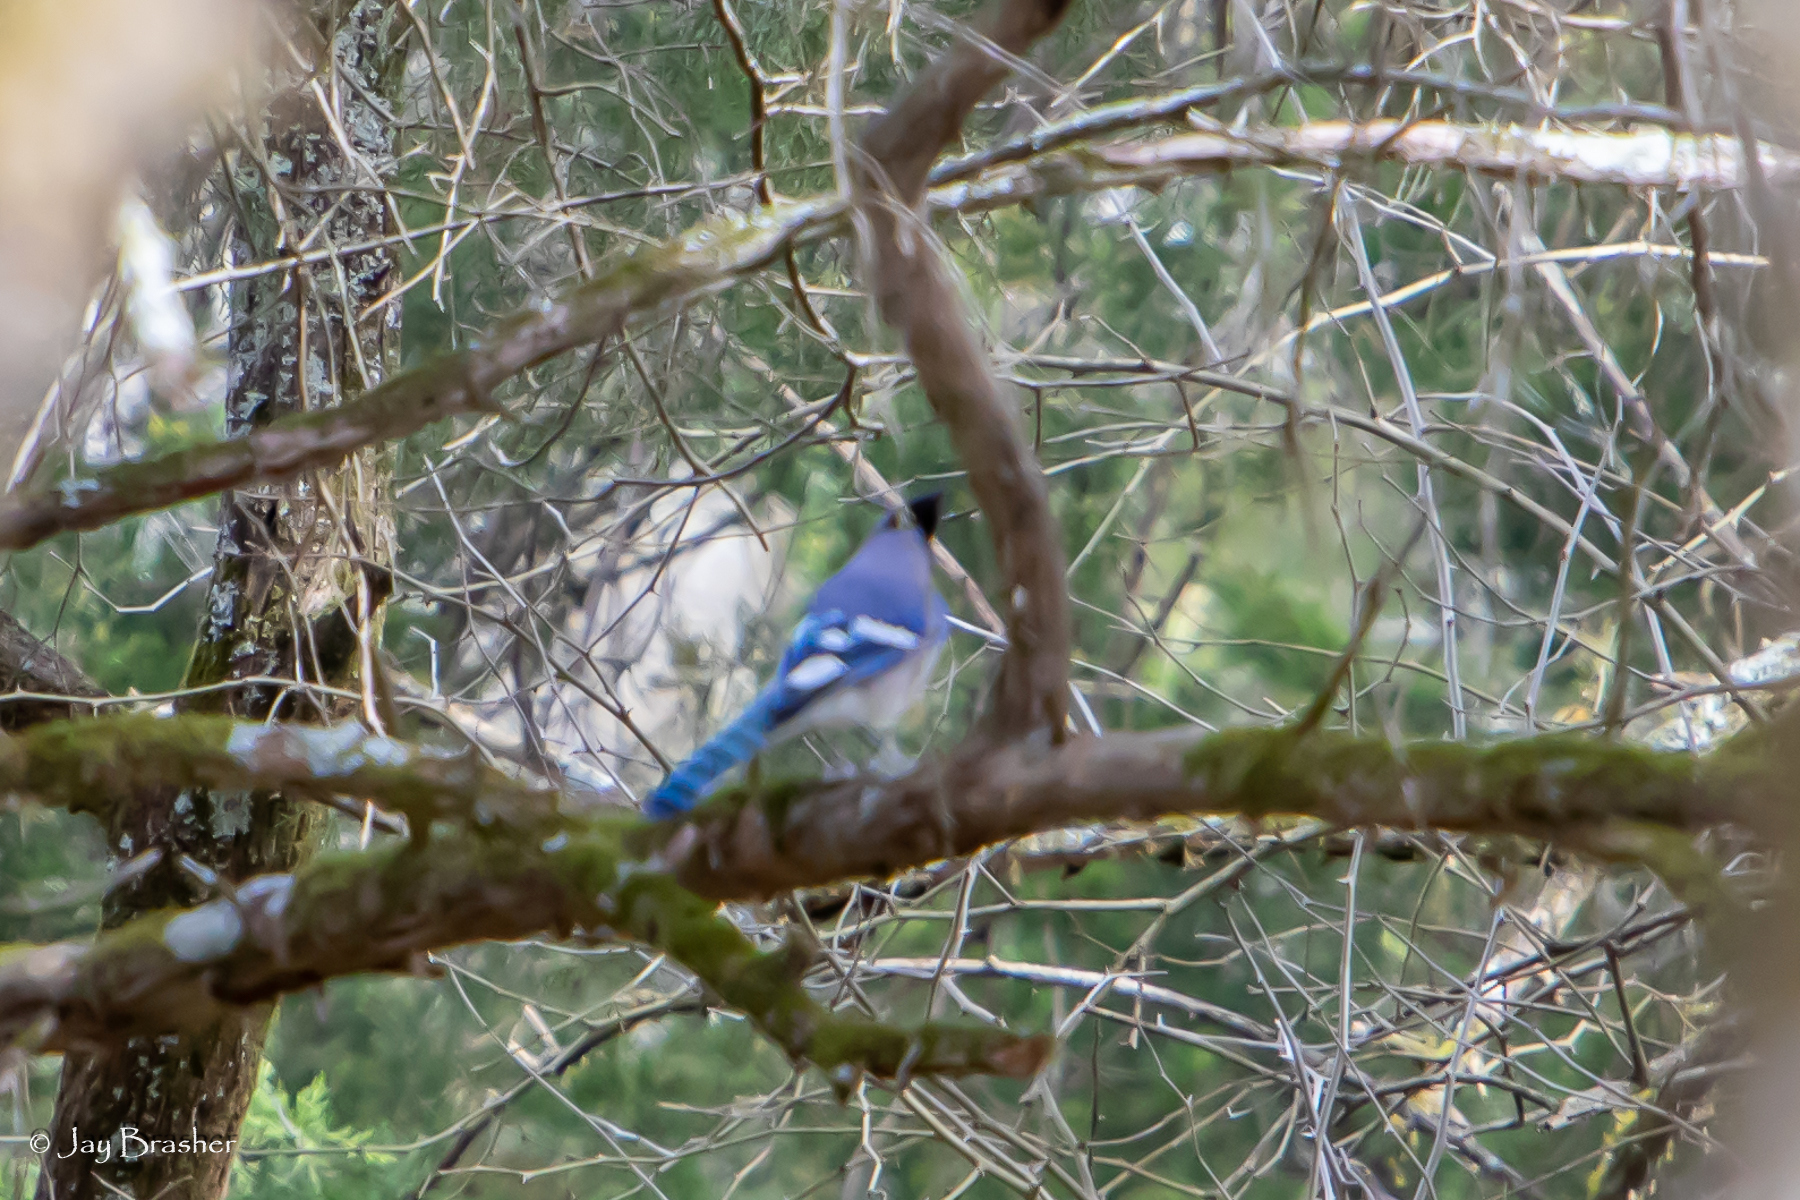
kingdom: Animalia
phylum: Chordata
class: Aves
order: Passeriformes
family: Corvidae
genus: Cyanocitta
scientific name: Cyanocitta cristata
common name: Blue jay
